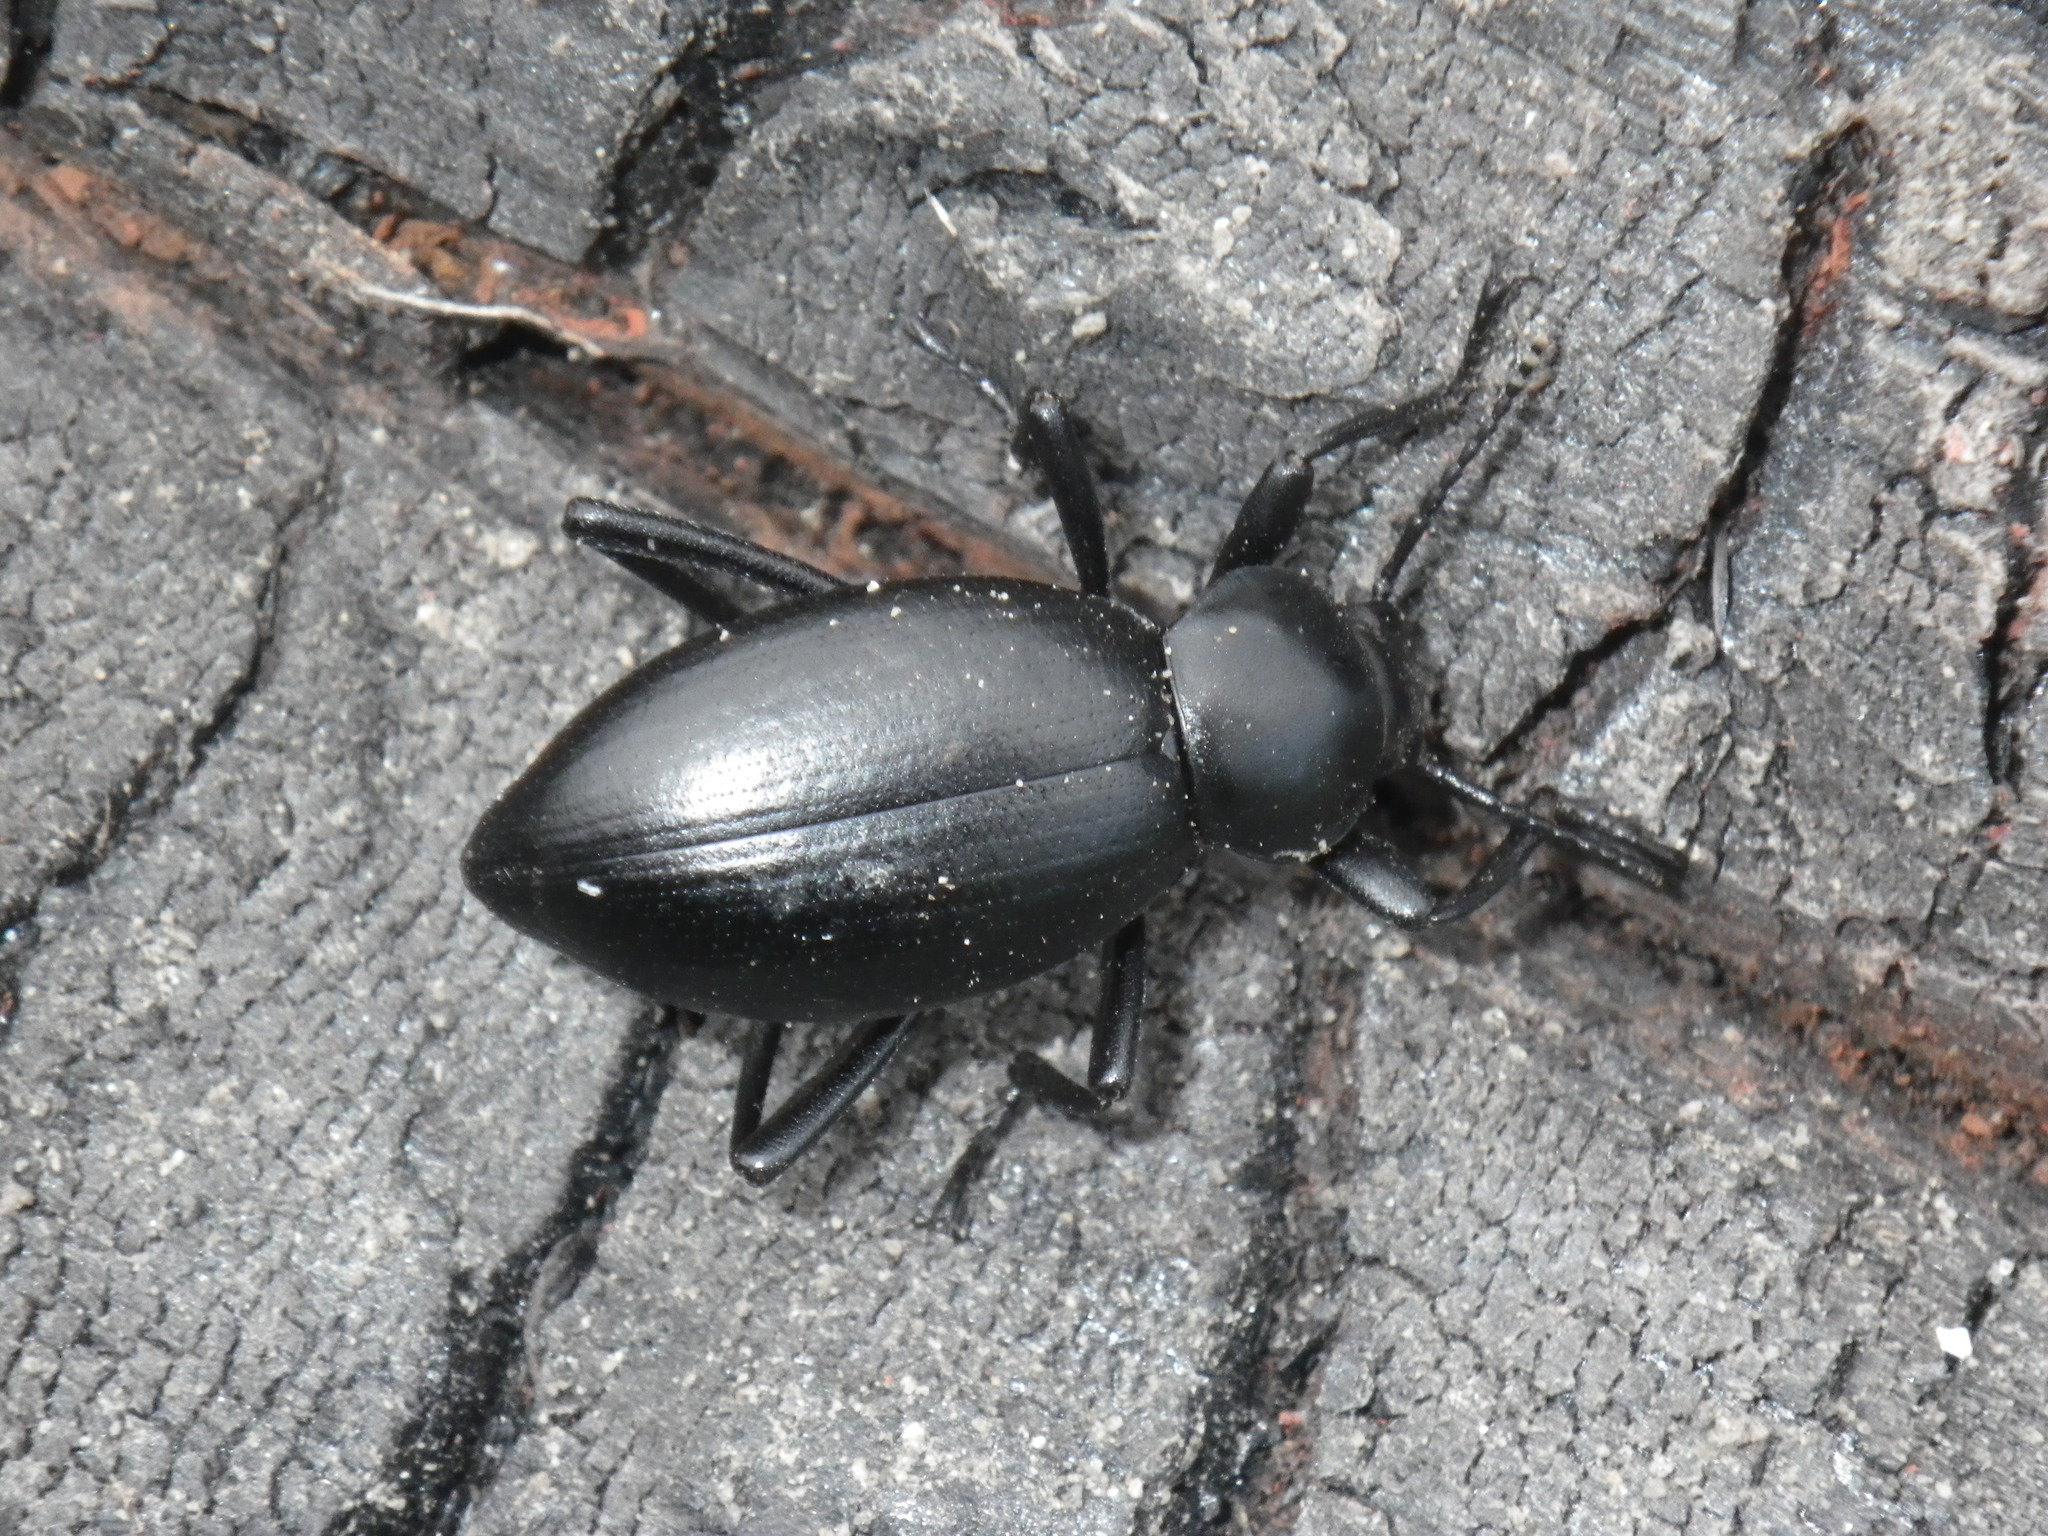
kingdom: Animalia
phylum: Arthropoda
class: Insecta
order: Coleoptera
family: Tenebrionidae
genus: Eleodes
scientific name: Eleodes dentipes
